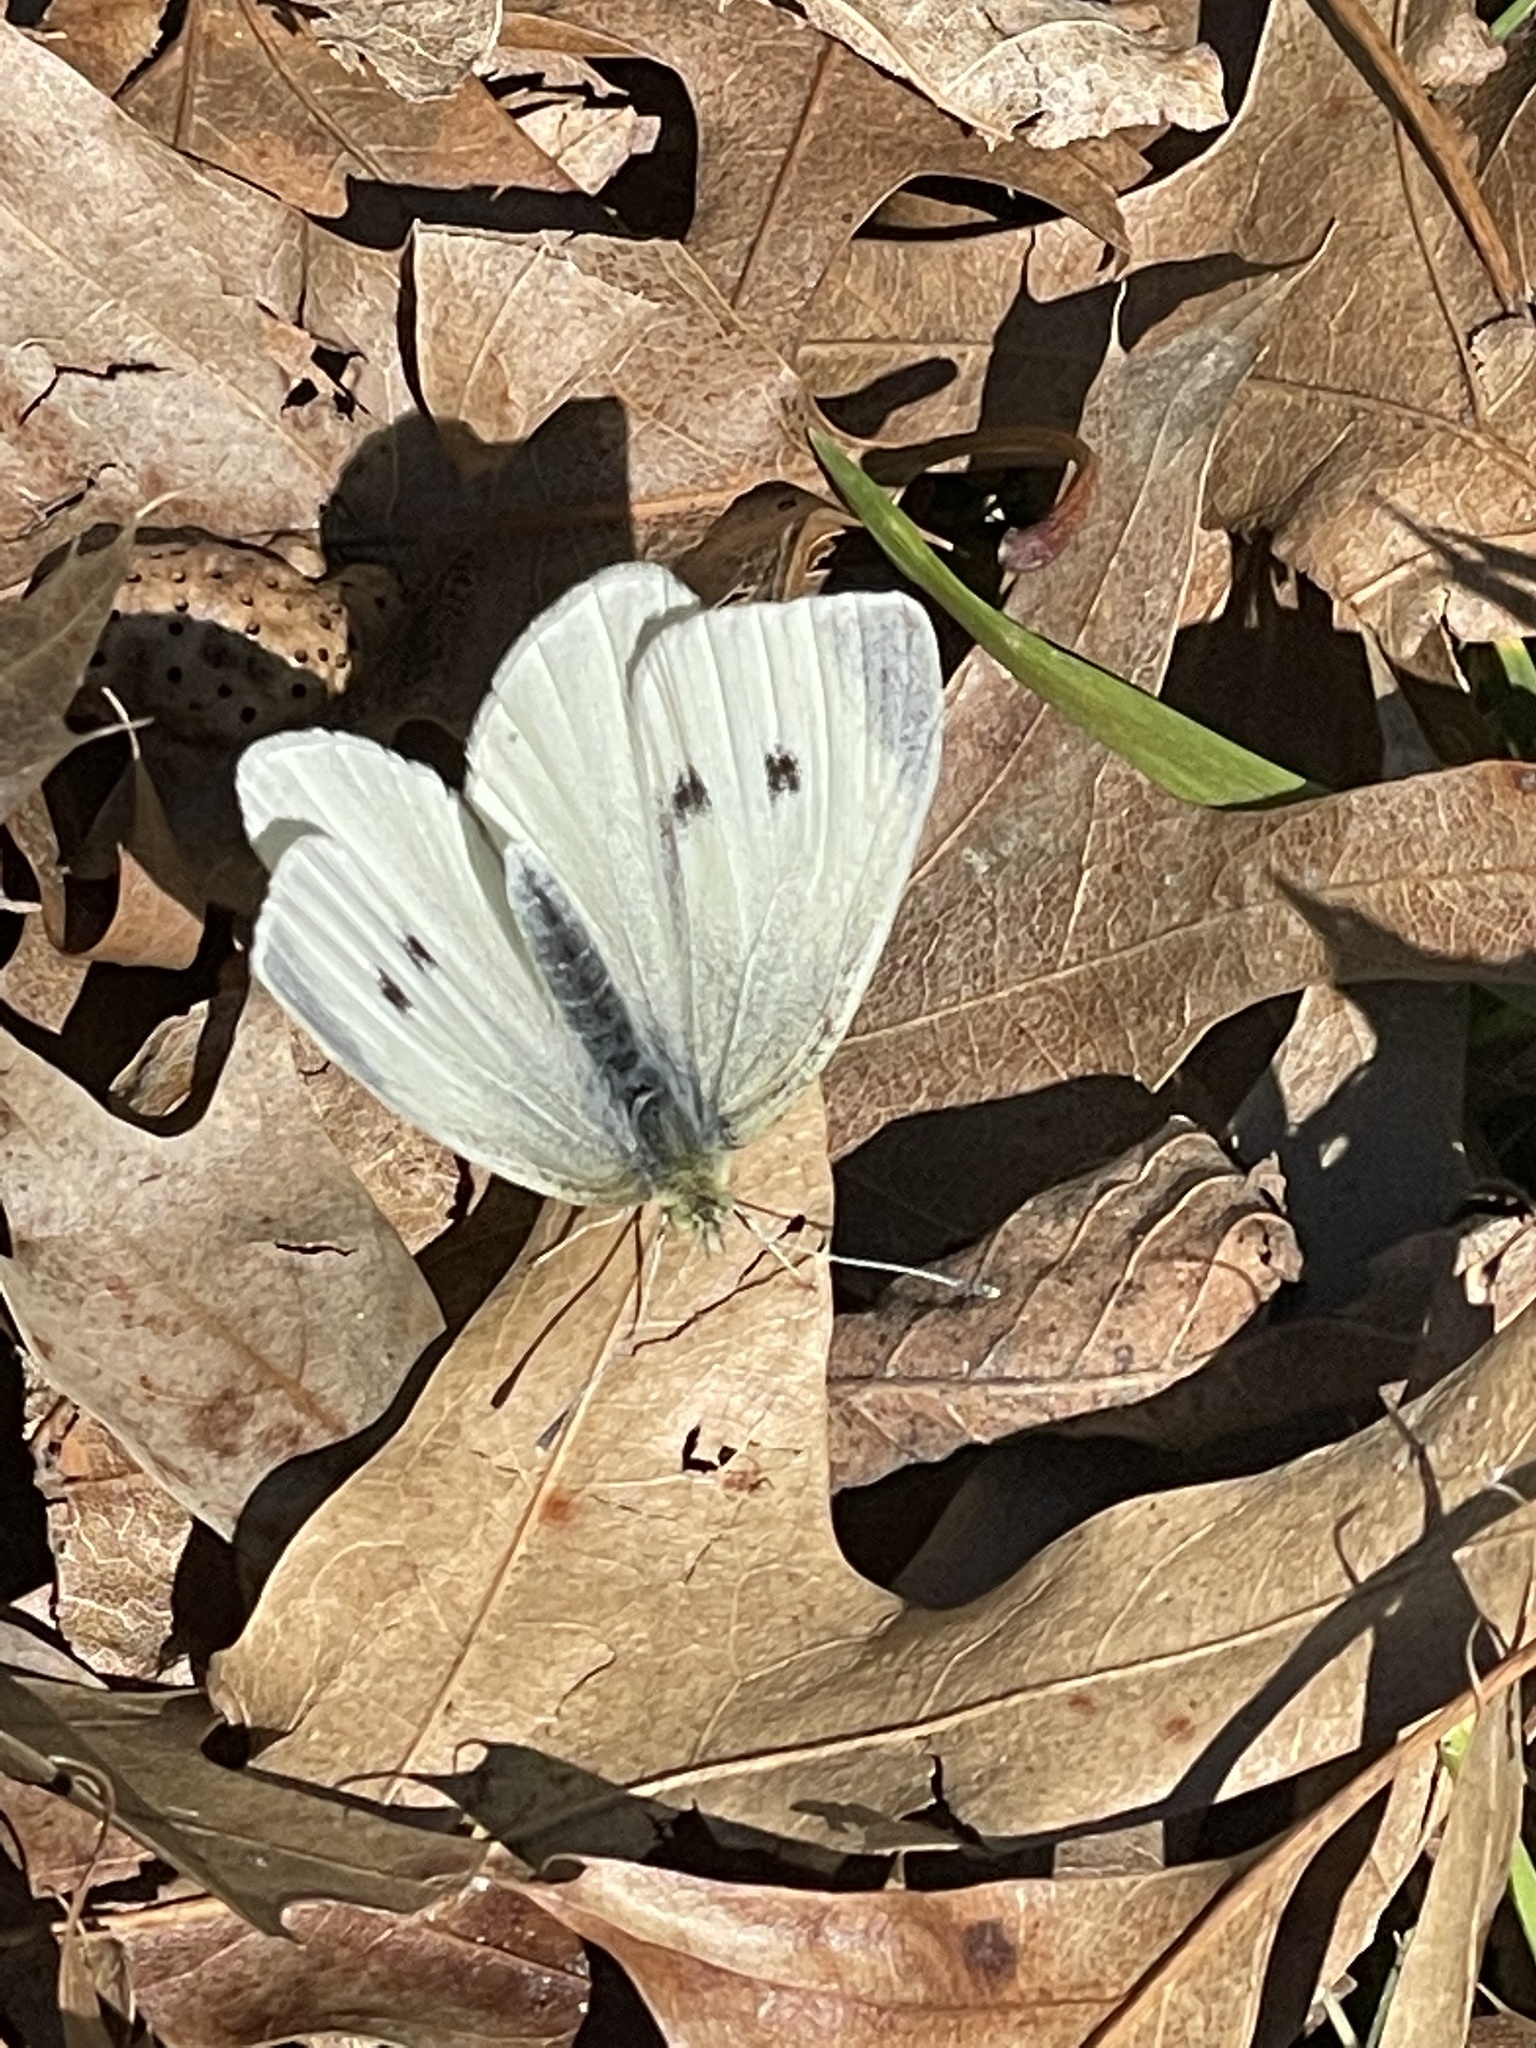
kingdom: Animalia
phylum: Arthropoda
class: Insecta
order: Lepidoptera
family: Pieridae
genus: Pieris
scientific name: Pieris rapae
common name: Small white
